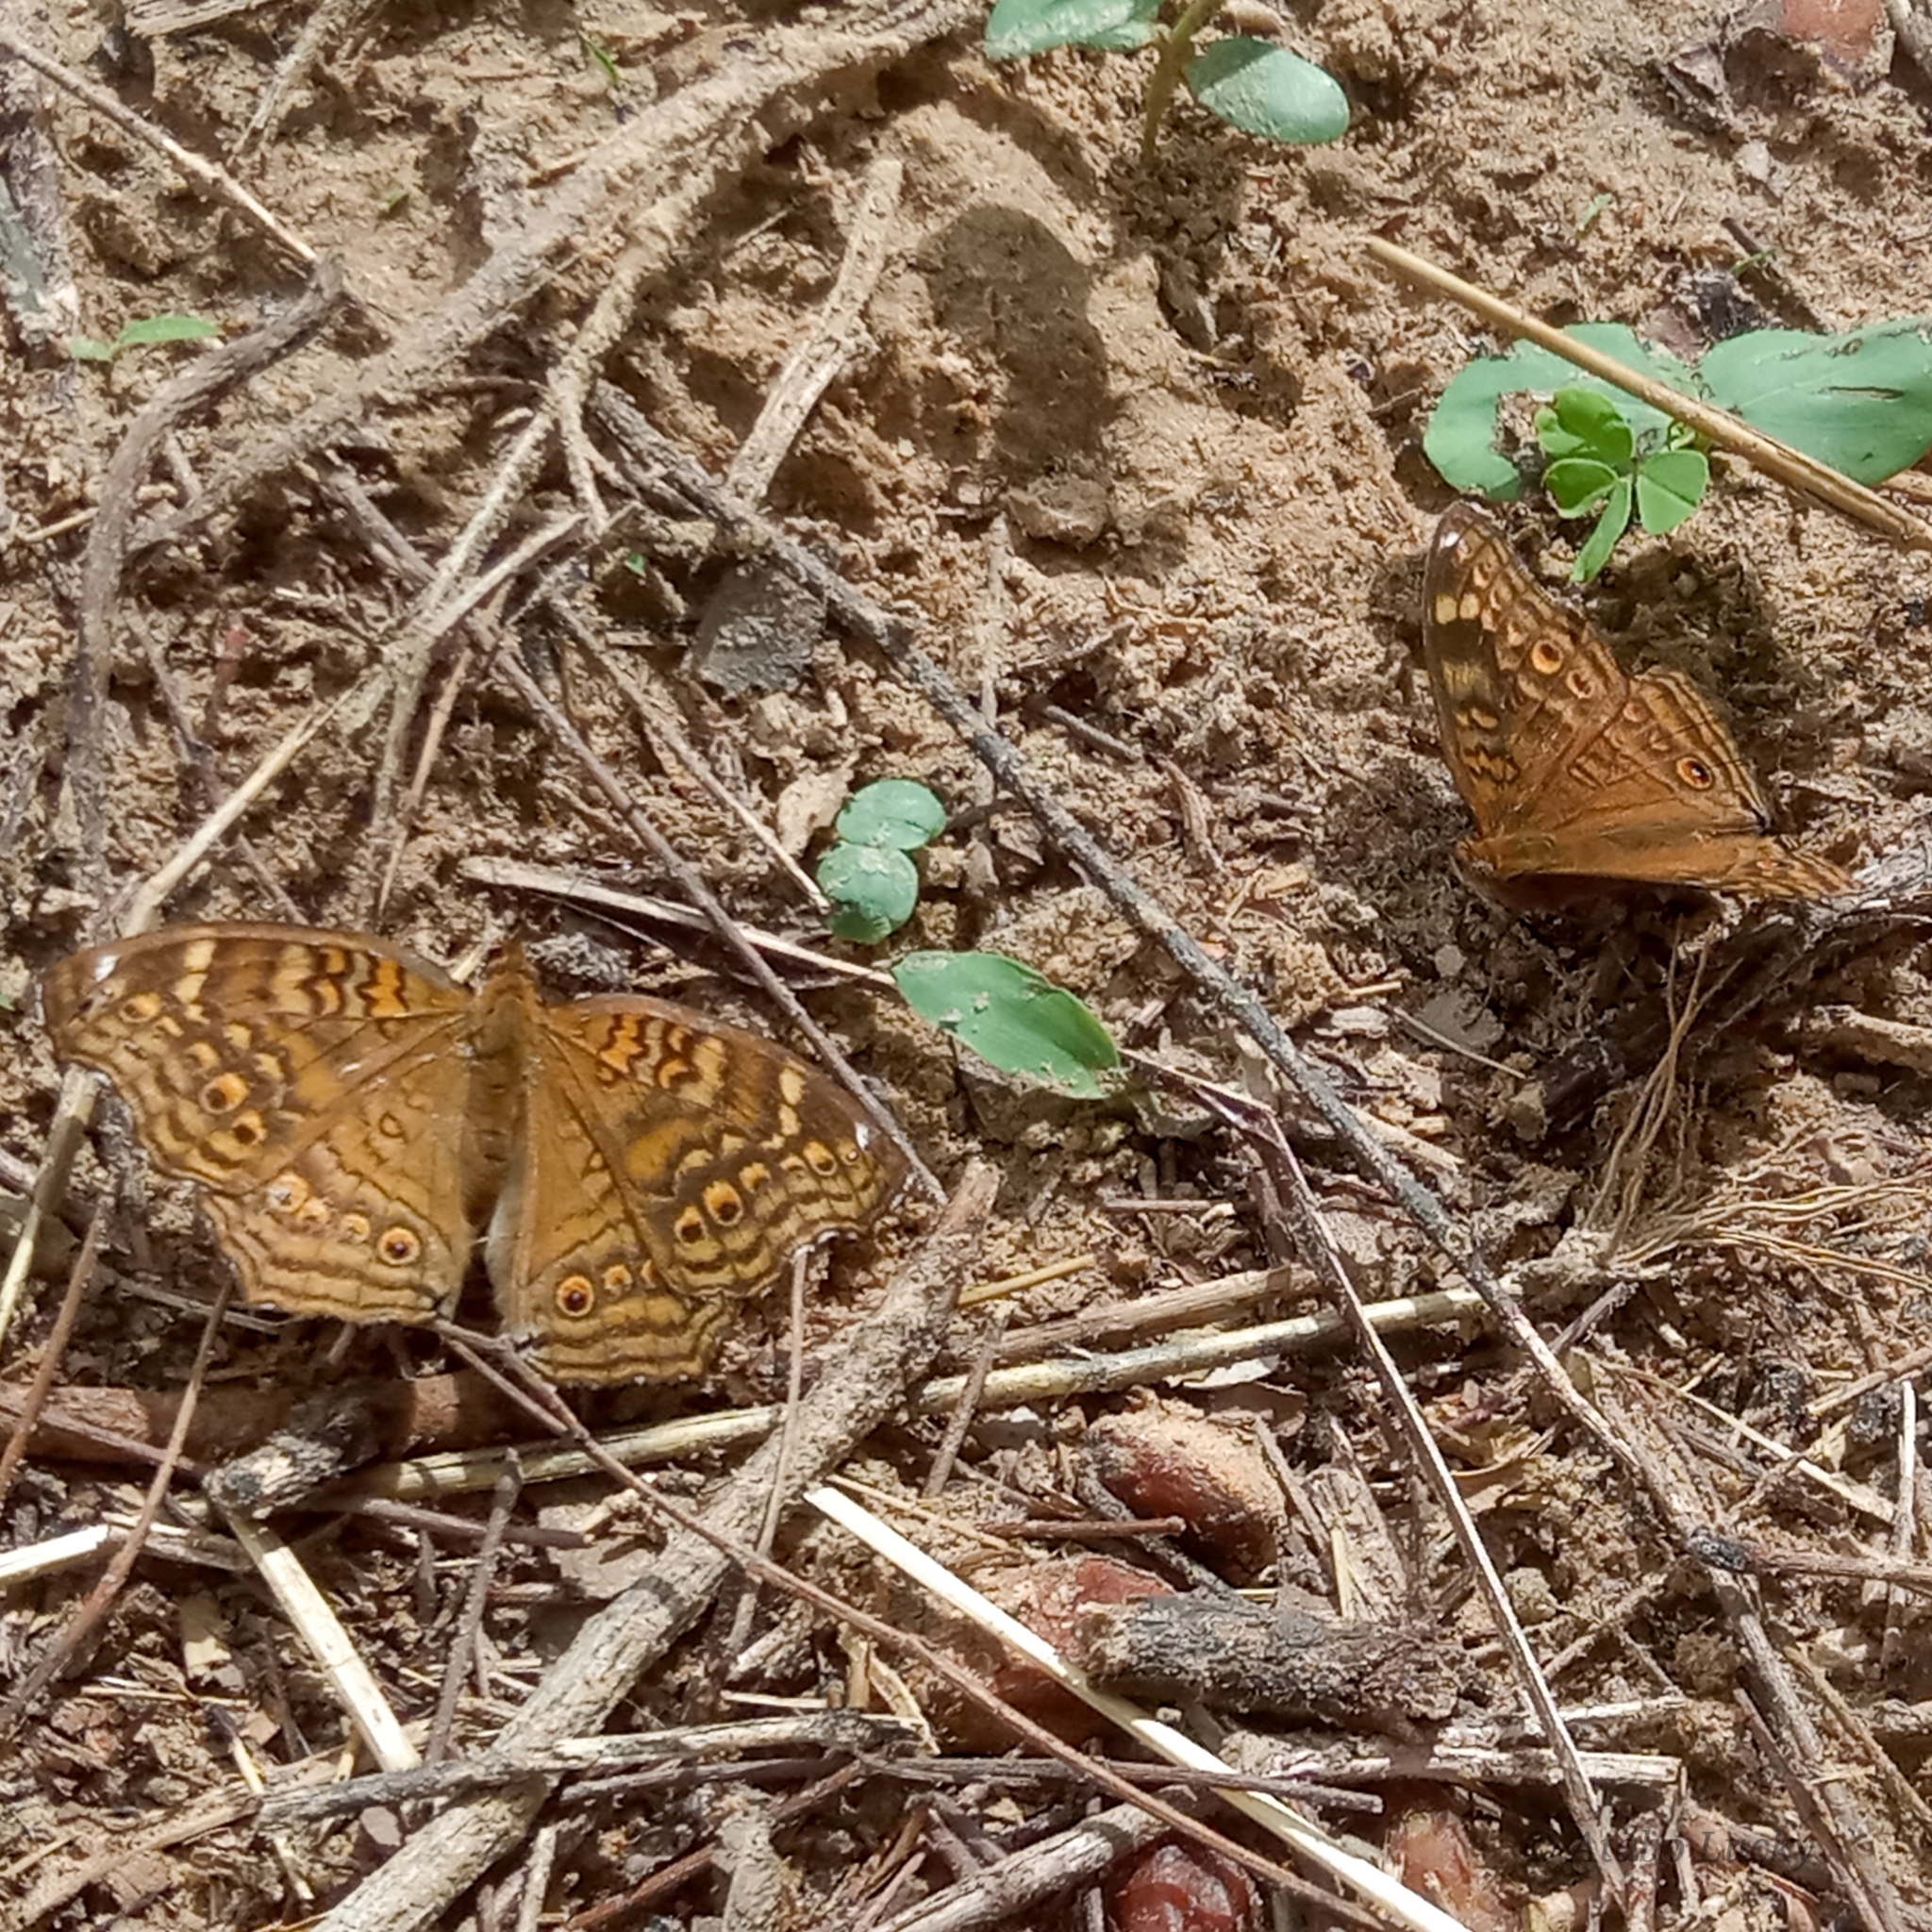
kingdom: Animalia
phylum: Arthropoda
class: Insecta
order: Lepidoptera
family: Nymphalidae
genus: Junonia
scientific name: Junonia chorimene
